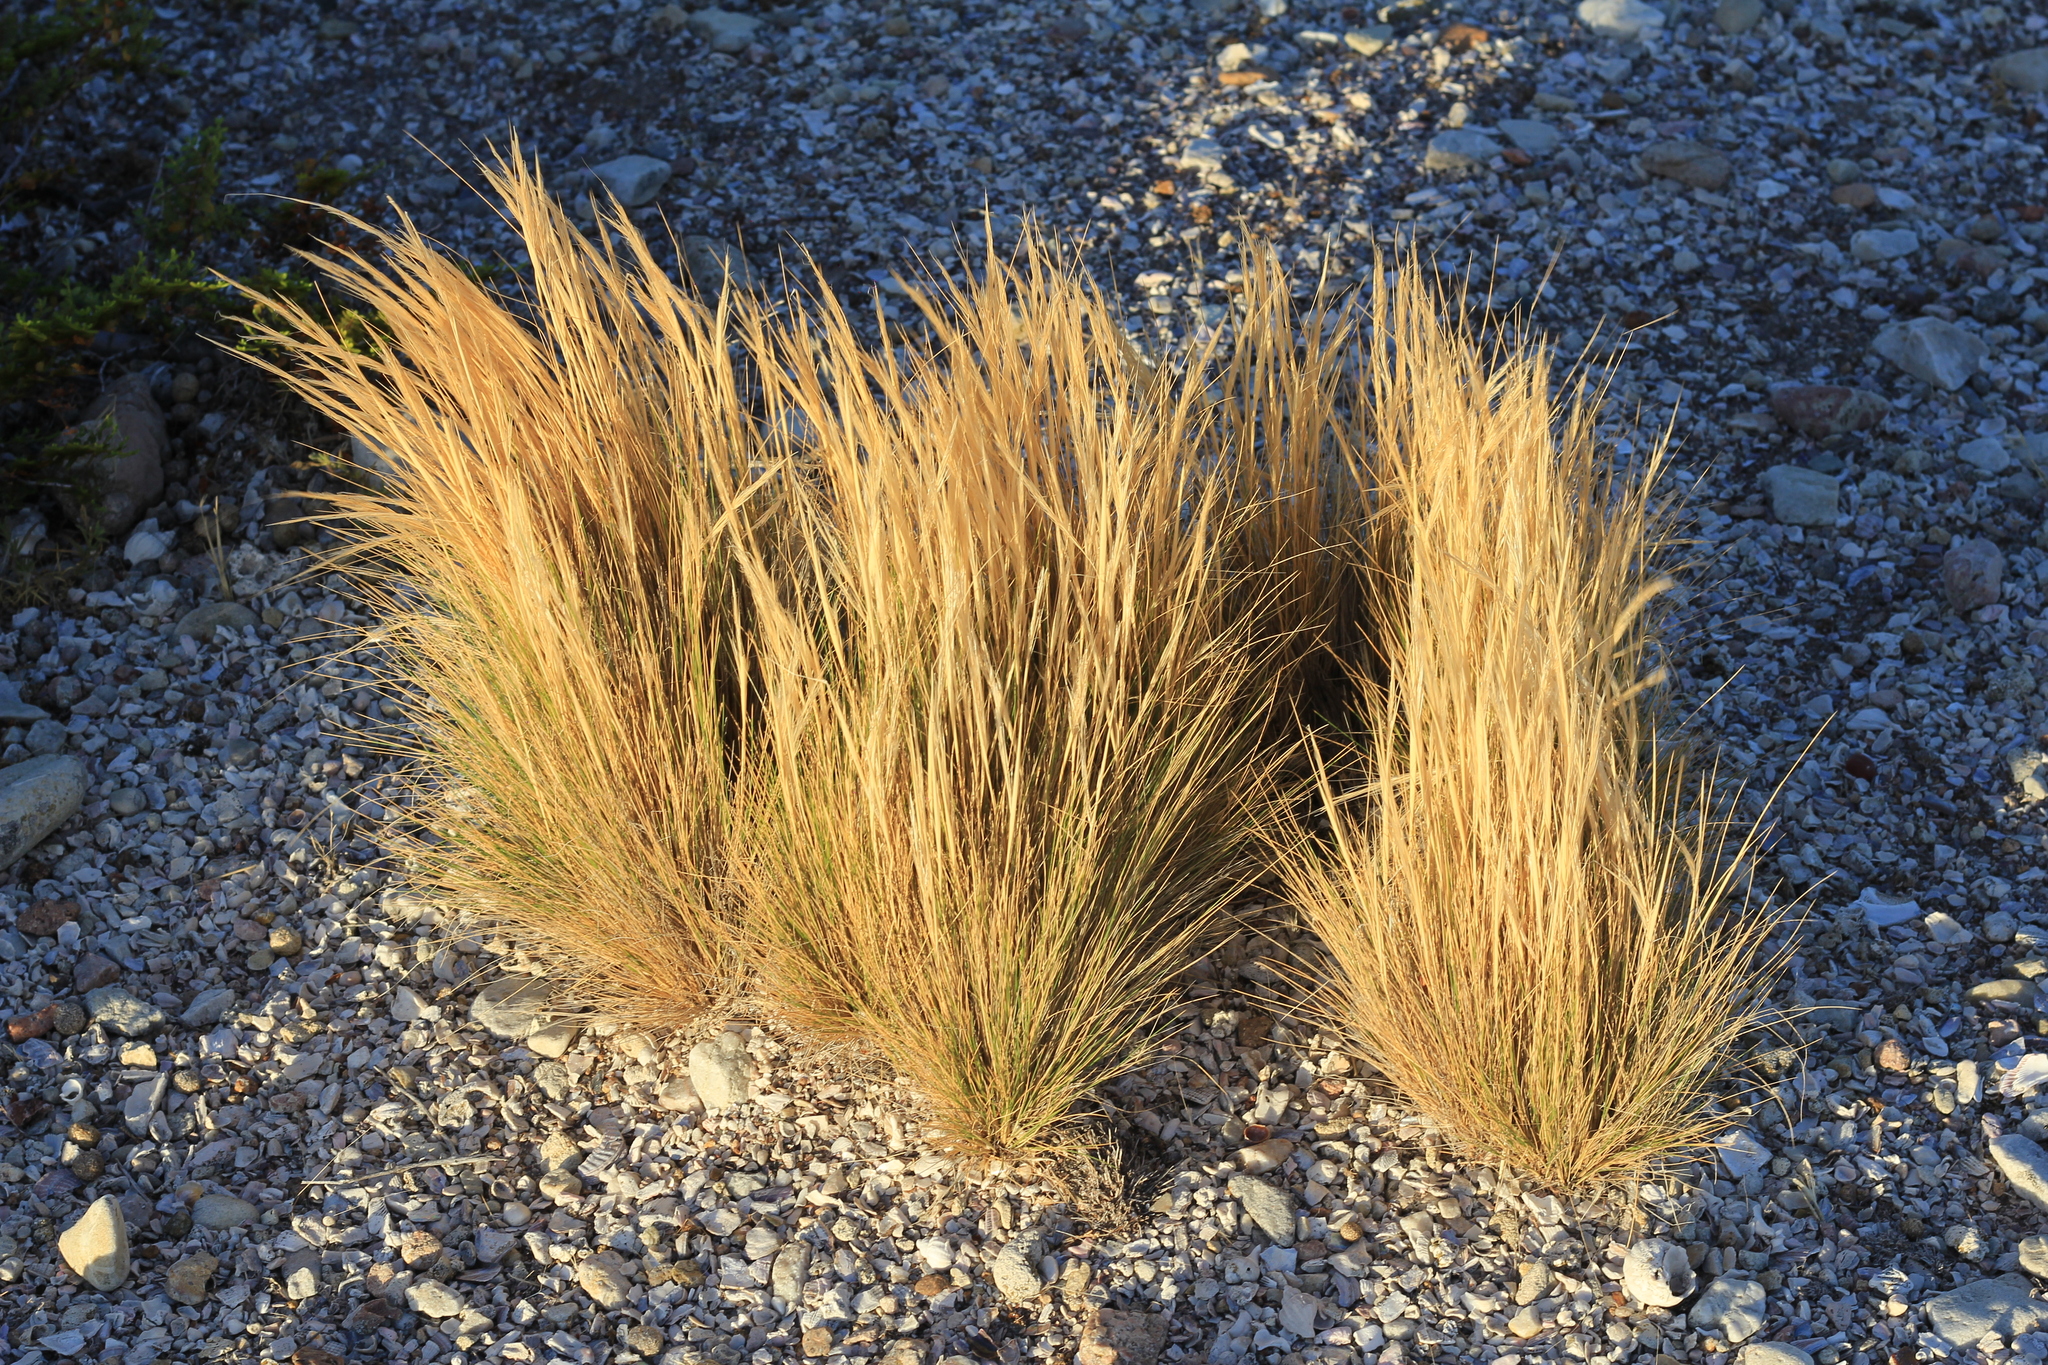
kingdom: Plantae
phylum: Tracheophyta
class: Liliopsida
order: Poales
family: Poaceae
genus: Pappostipa
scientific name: Pappostipa humilis
